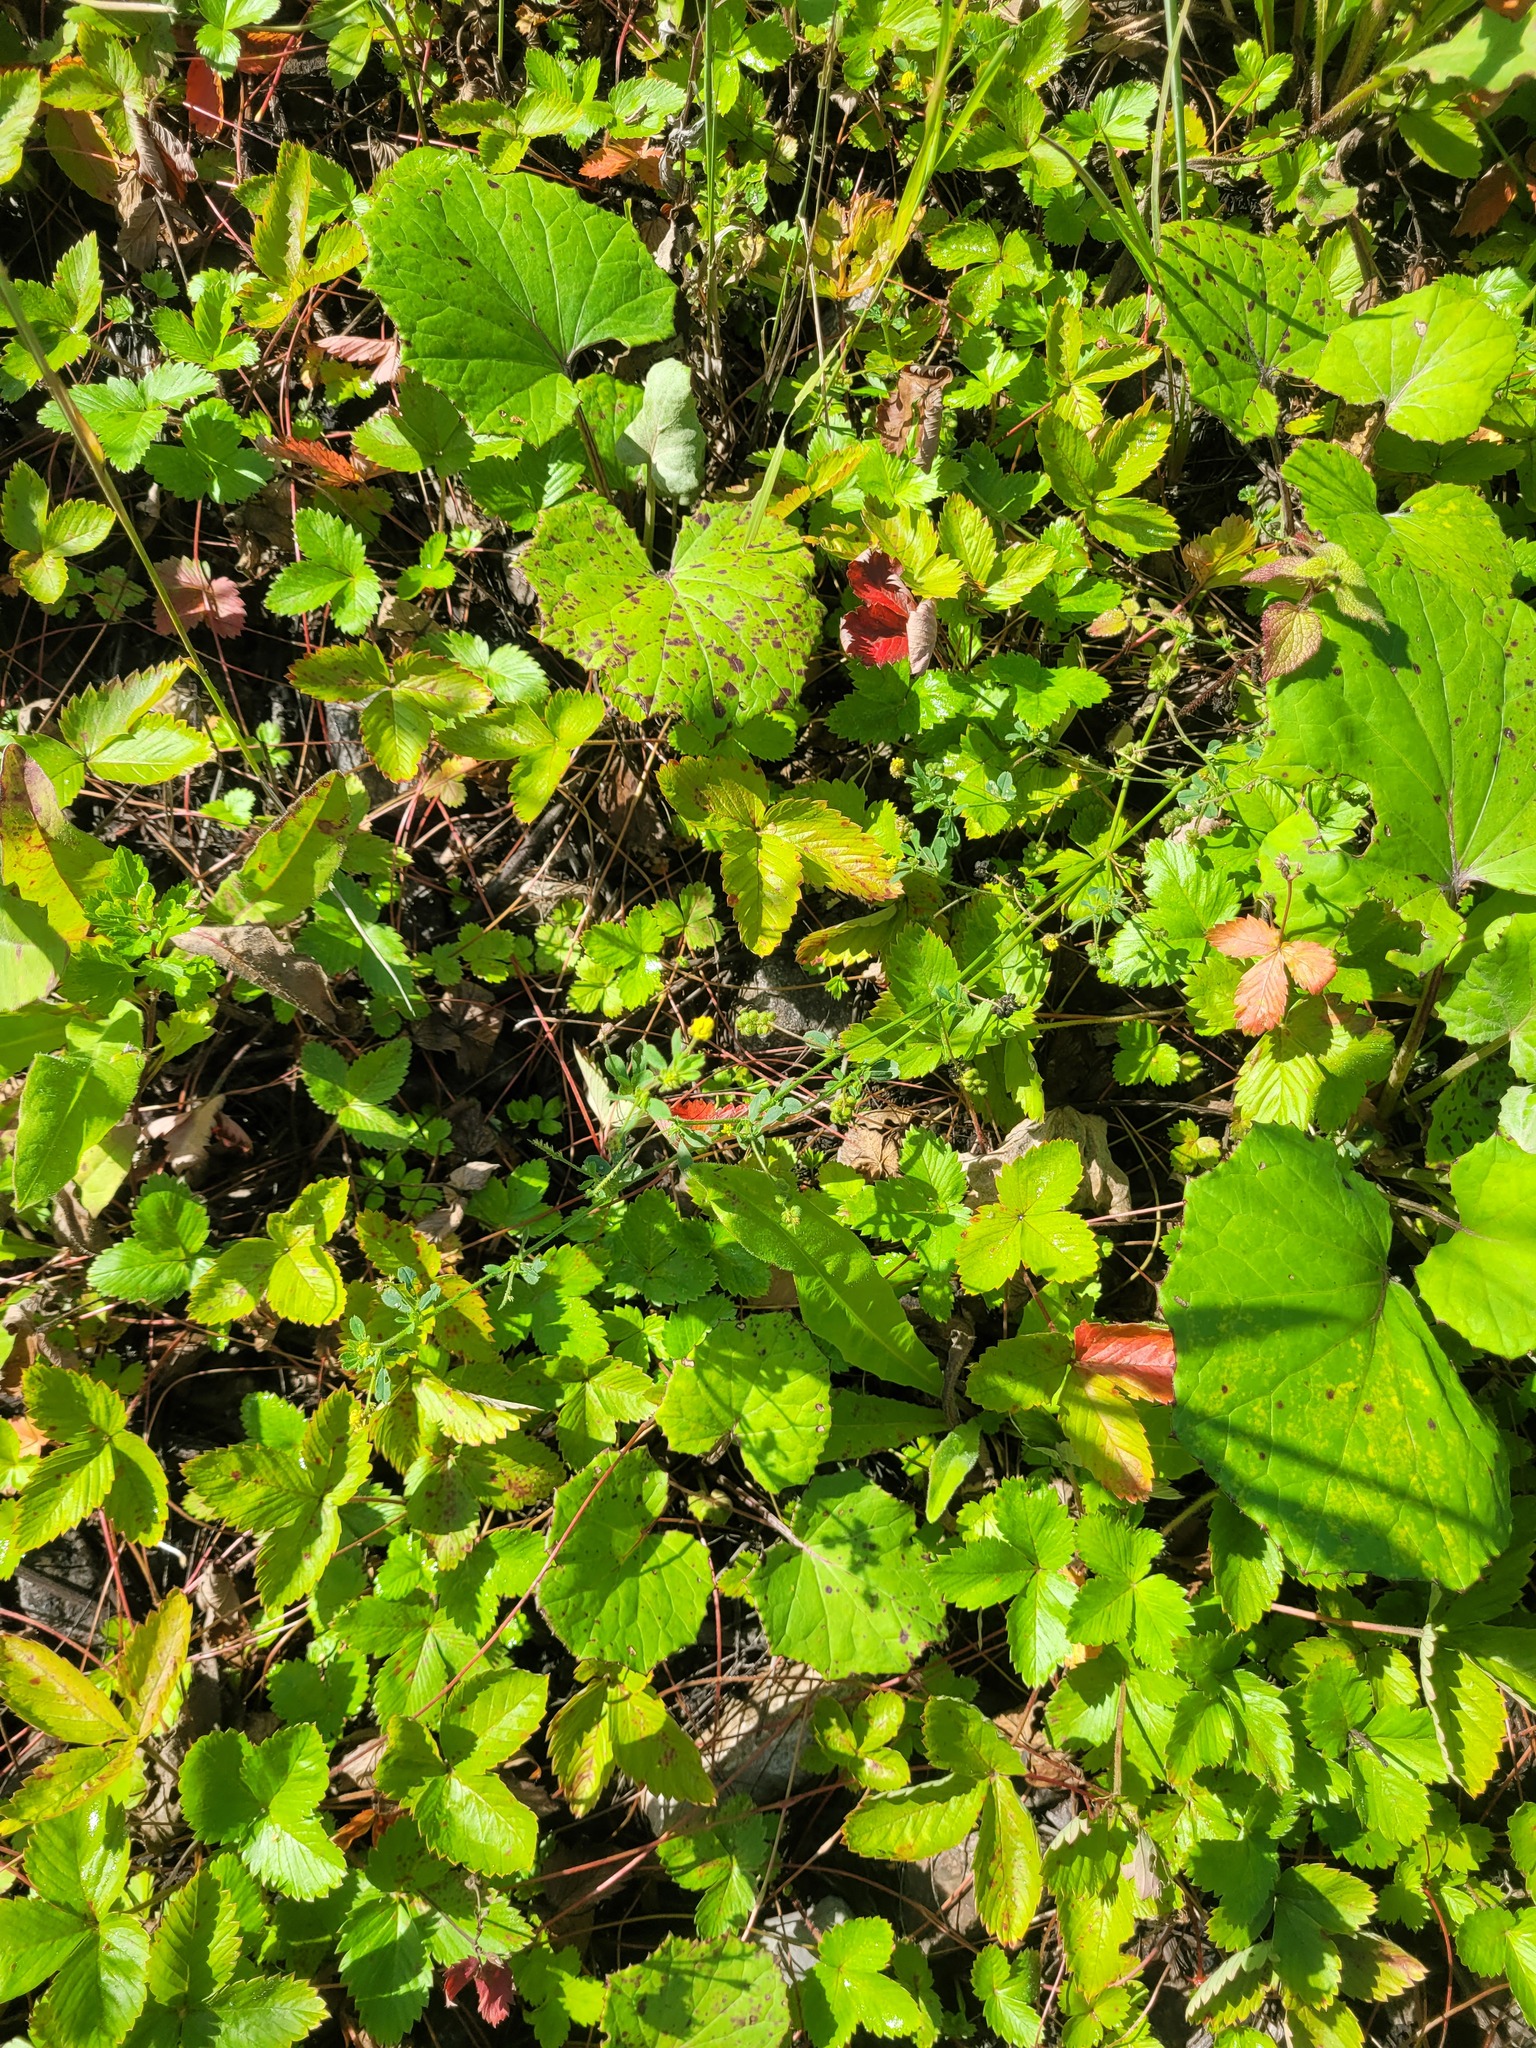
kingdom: Plantae
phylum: Tracheophyta
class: Magnoliopsida
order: Fabales
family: Fabaceae
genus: Medicago
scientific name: Medicago lupulina
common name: Black medick
